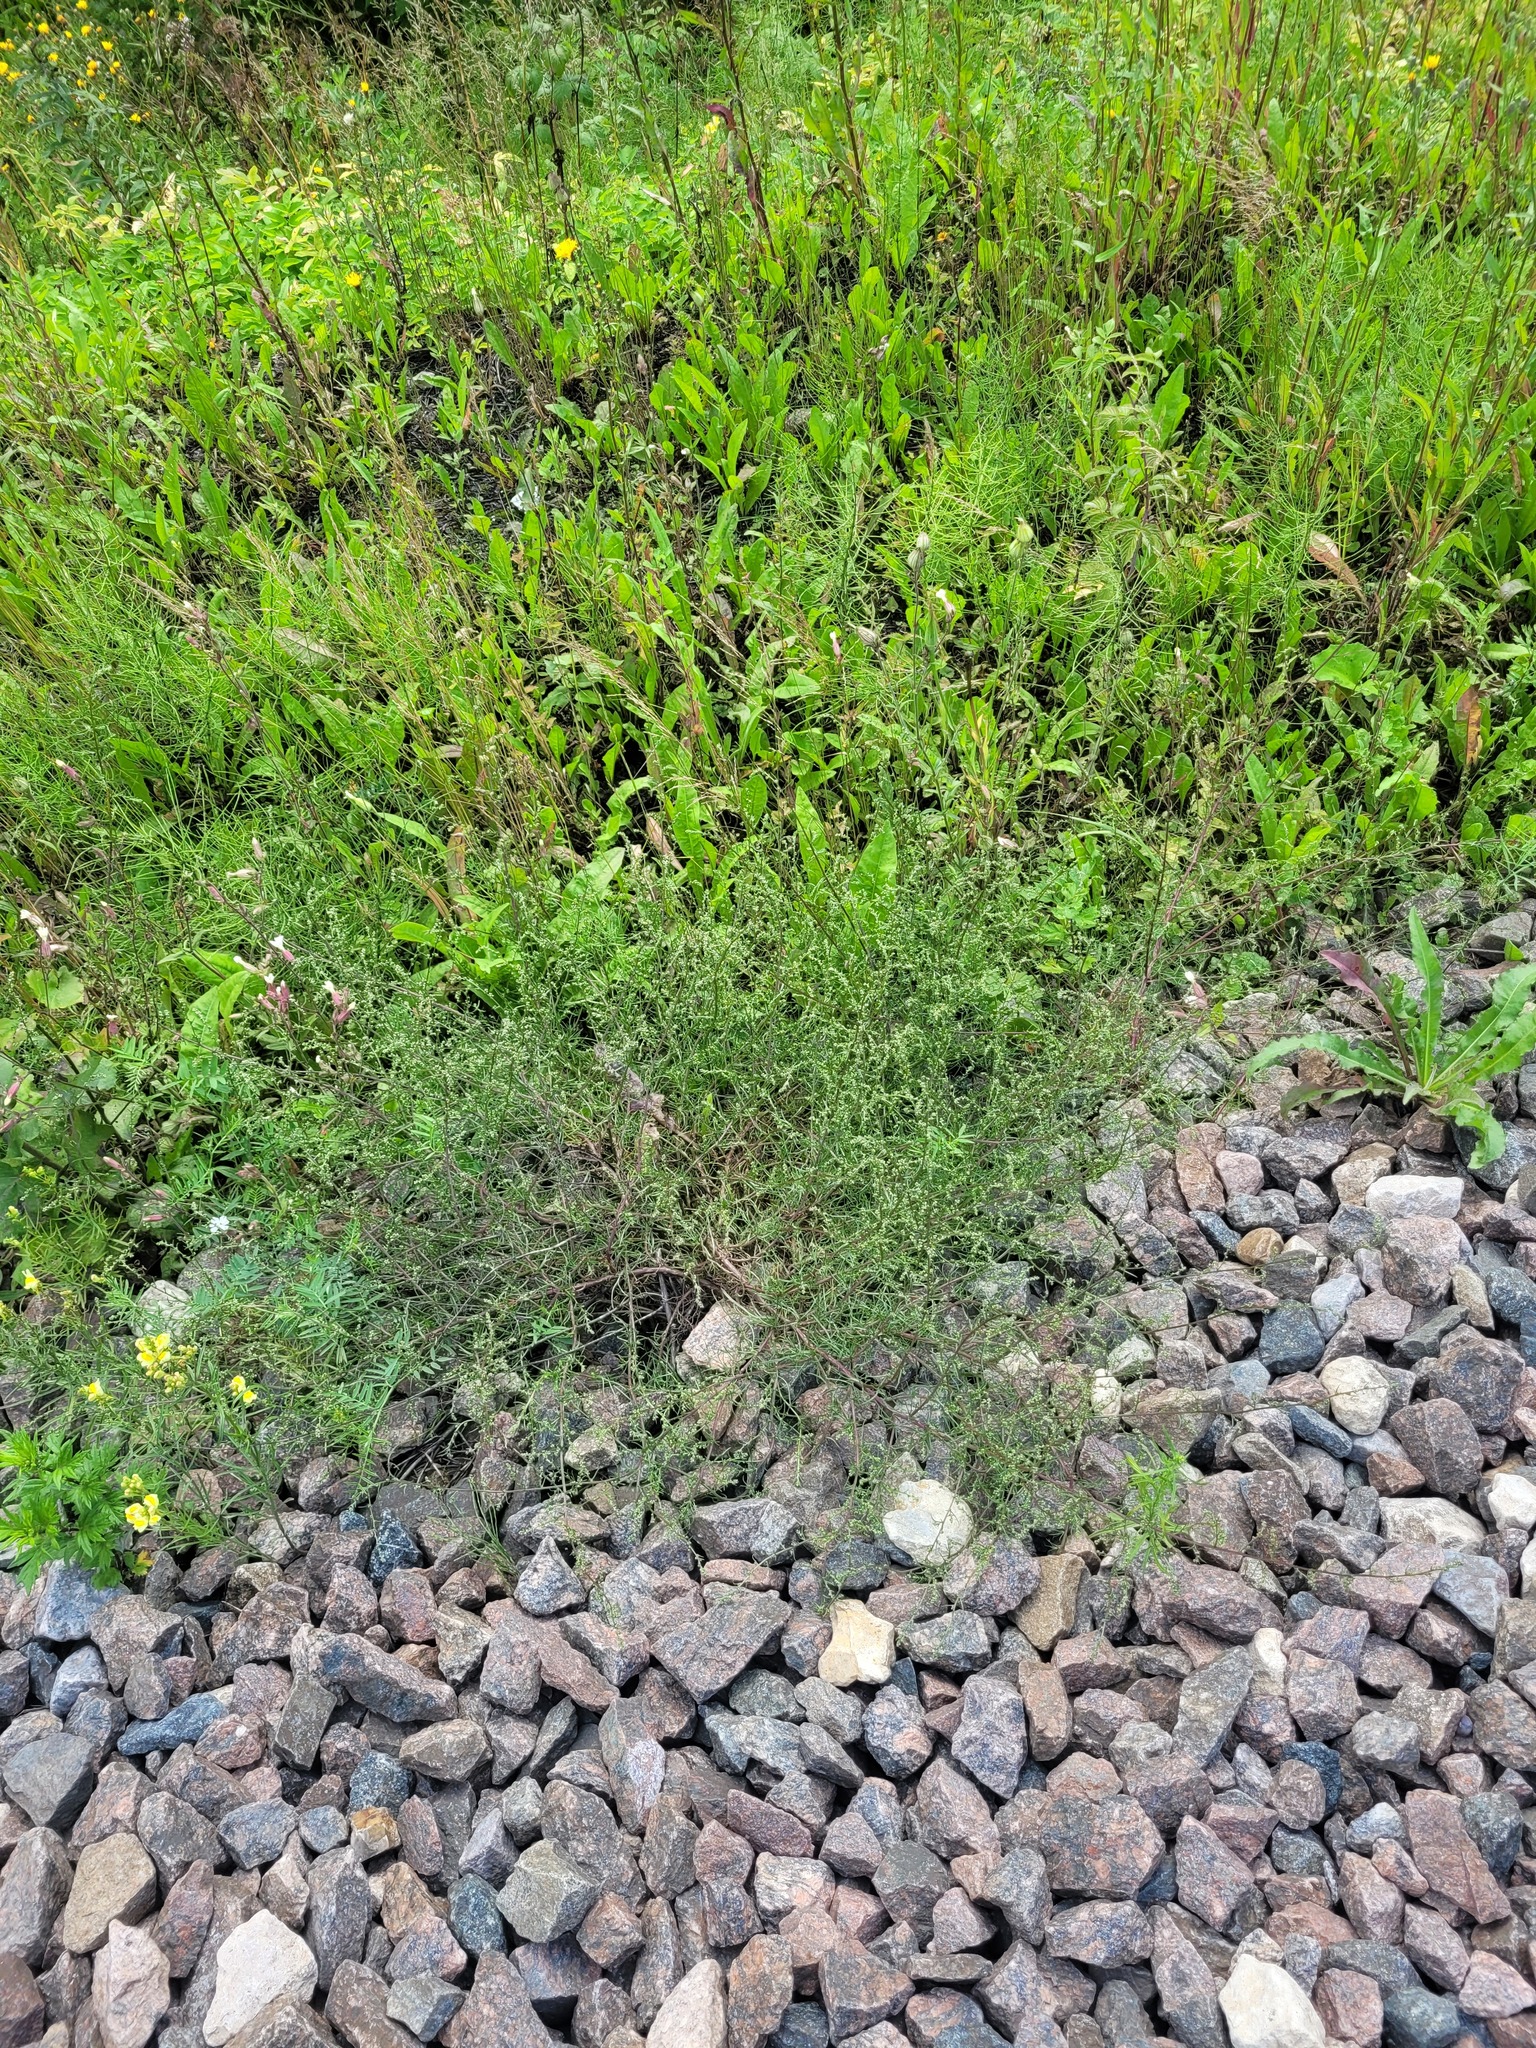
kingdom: Plantae
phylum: Tracheophyta
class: Magnoliopsida
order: Asterales
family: Asteraceae
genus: Artemisia
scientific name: Artemisia campestris
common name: Field wormwood
